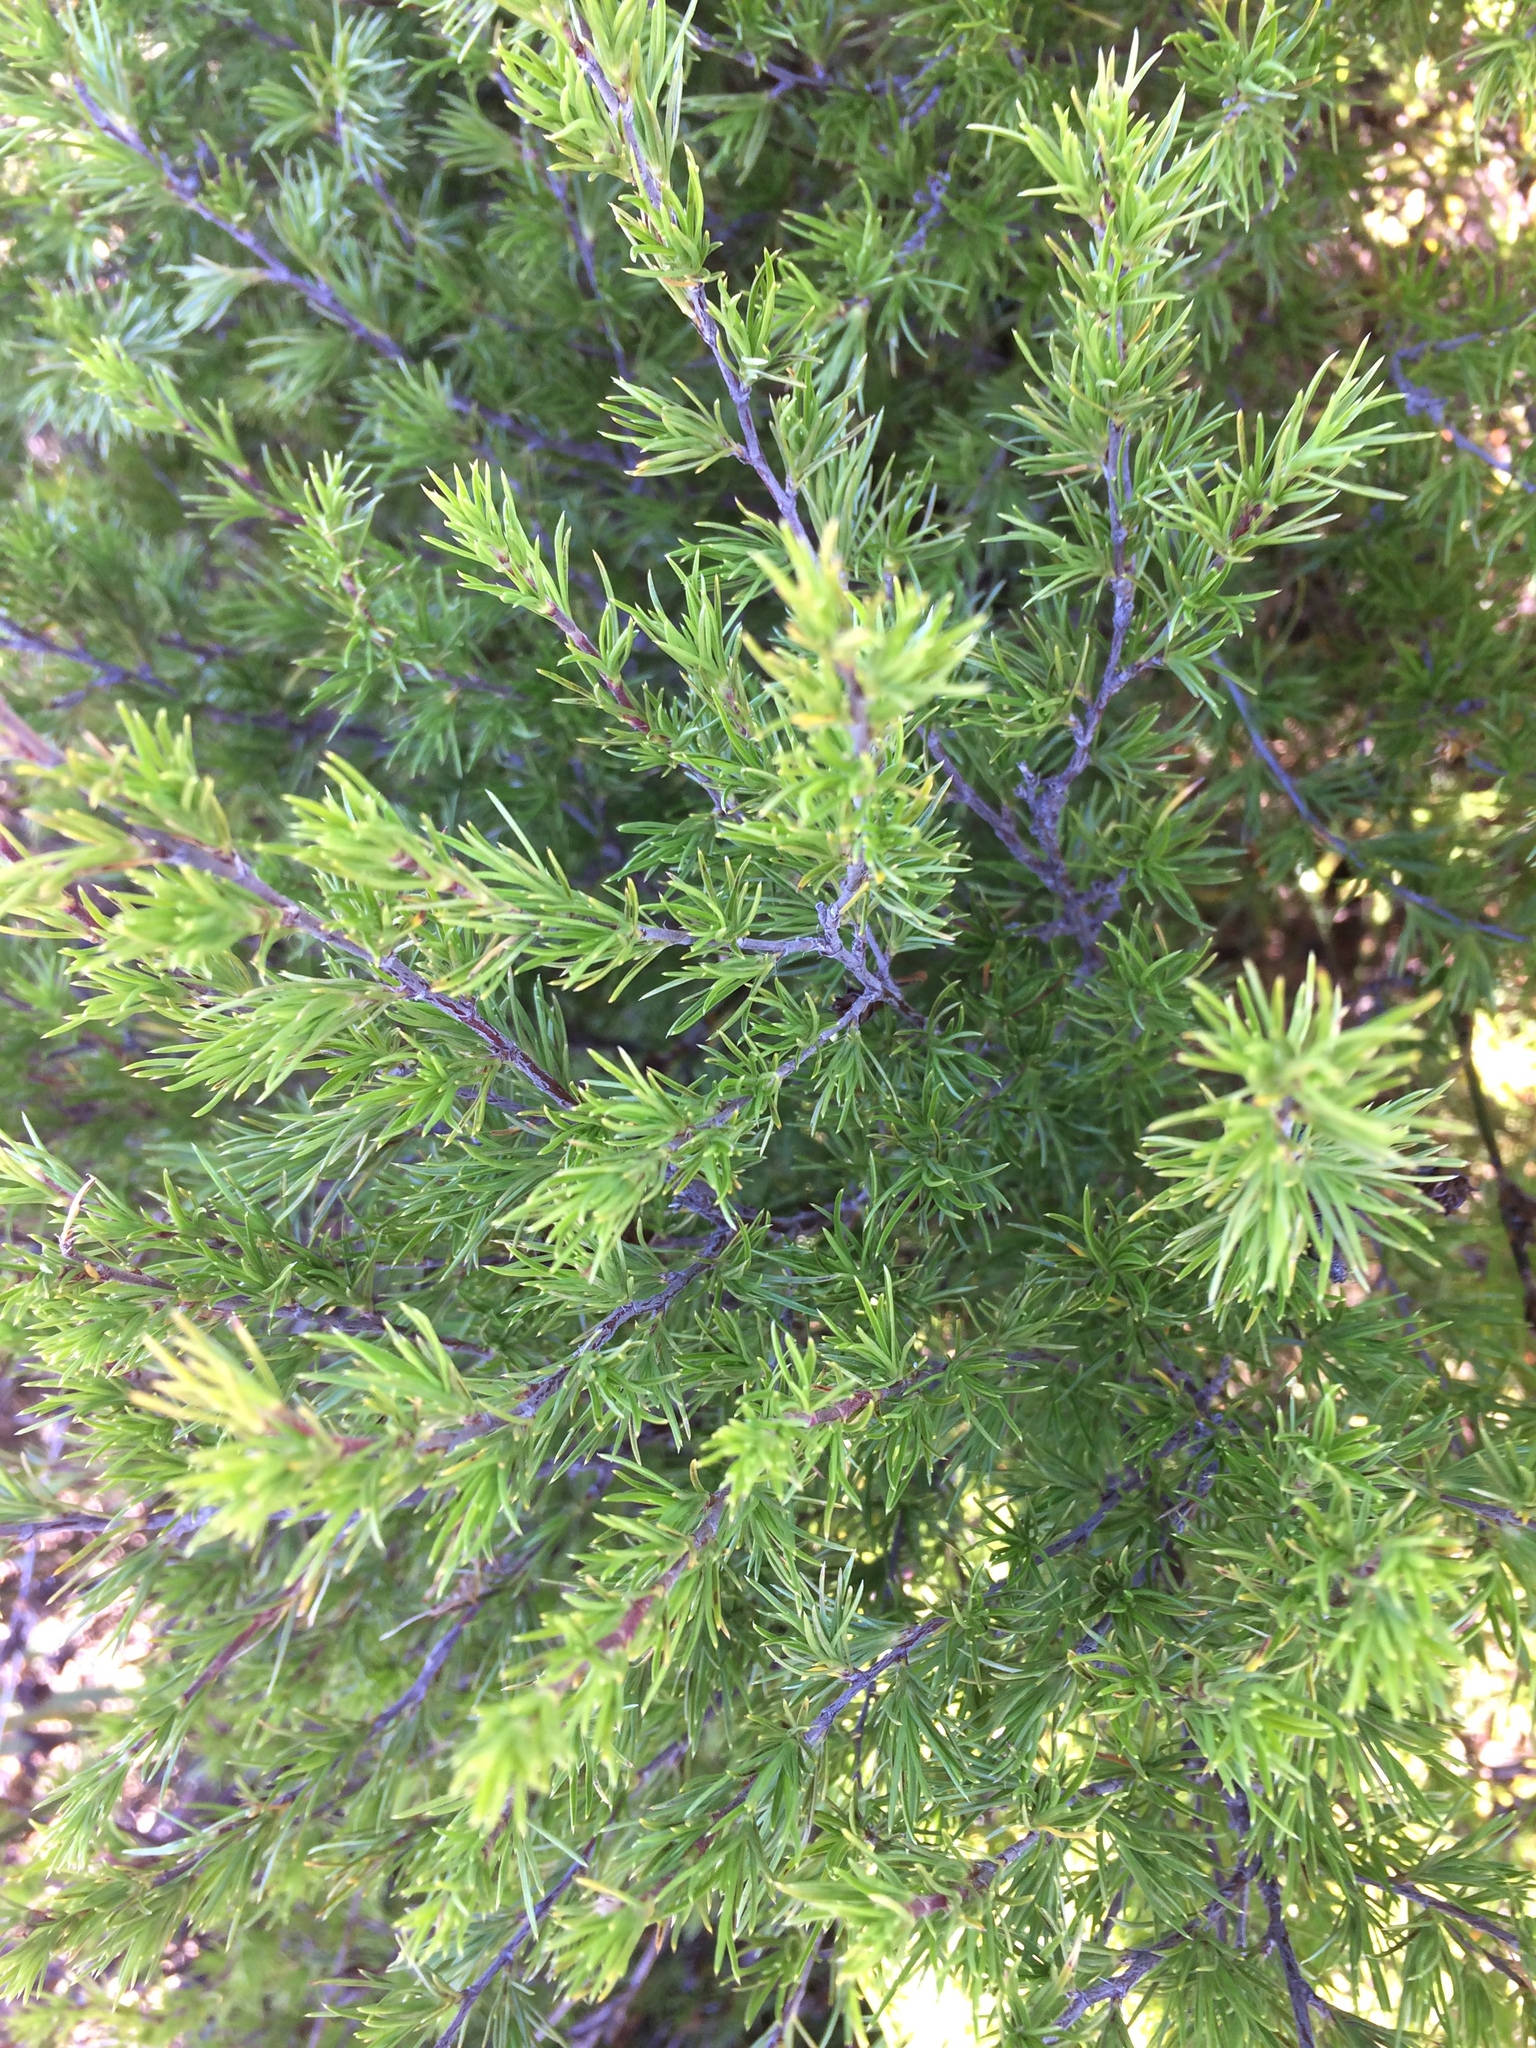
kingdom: Plantae
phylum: Tracheophyta
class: Magnoliopsida
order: Rosales
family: Rosaceae
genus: Cliffortia
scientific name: Cliffortia atrata
